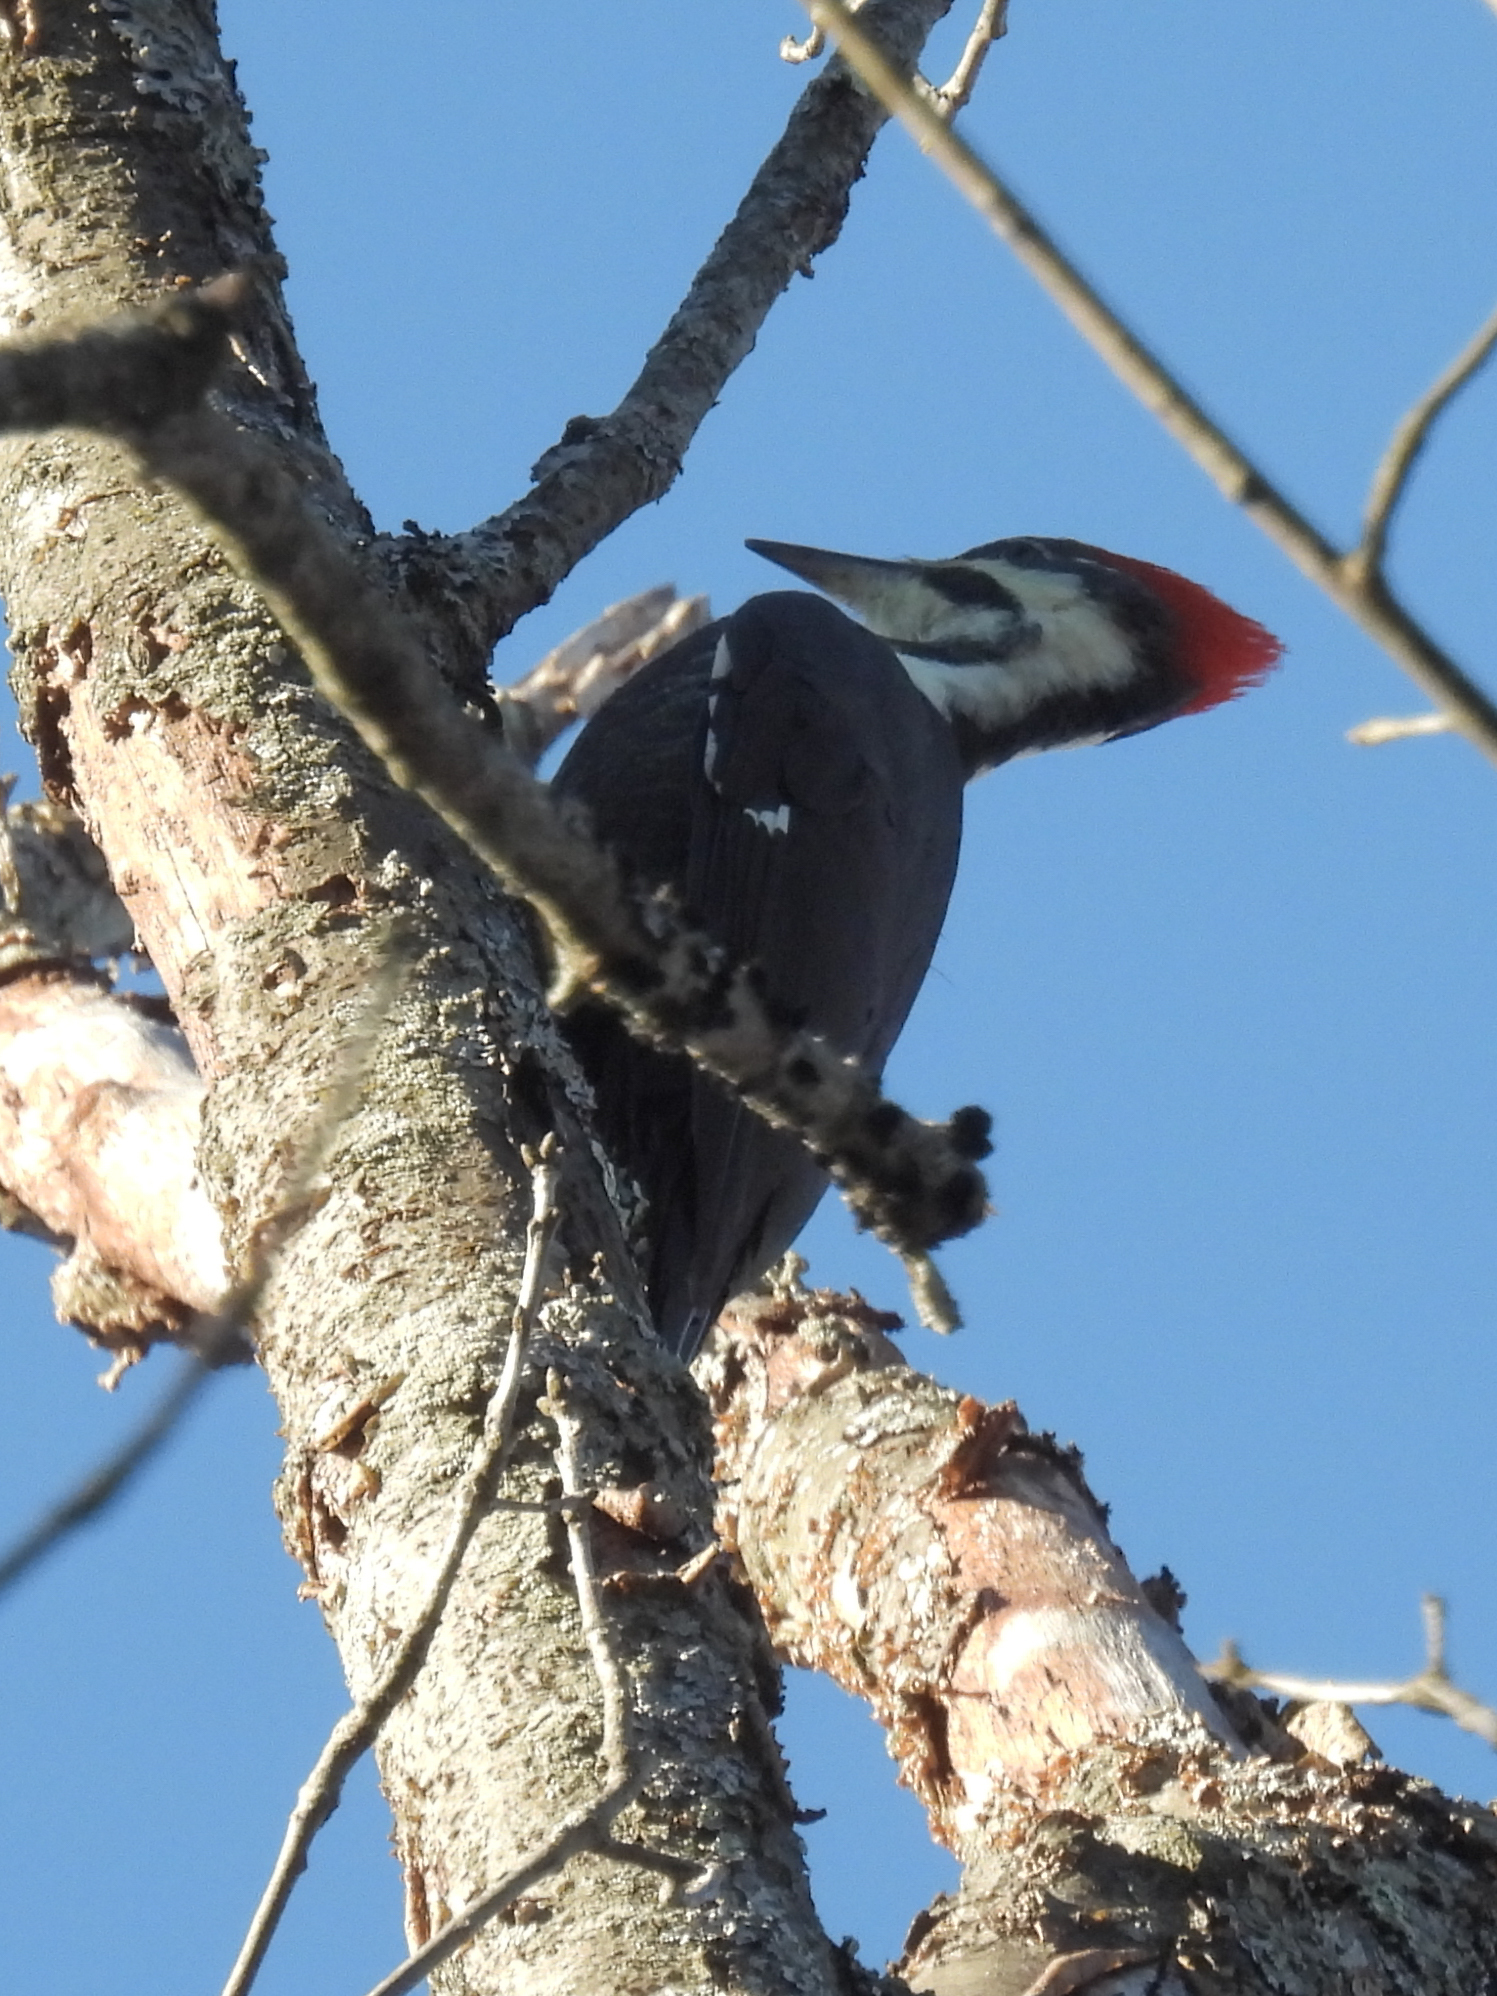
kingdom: Animalia
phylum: Chordata
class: Aves
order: Piciformes
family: Picidae
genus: Dryocopus
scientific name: Dryocopus pileatus
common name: Pileated woodpecker
